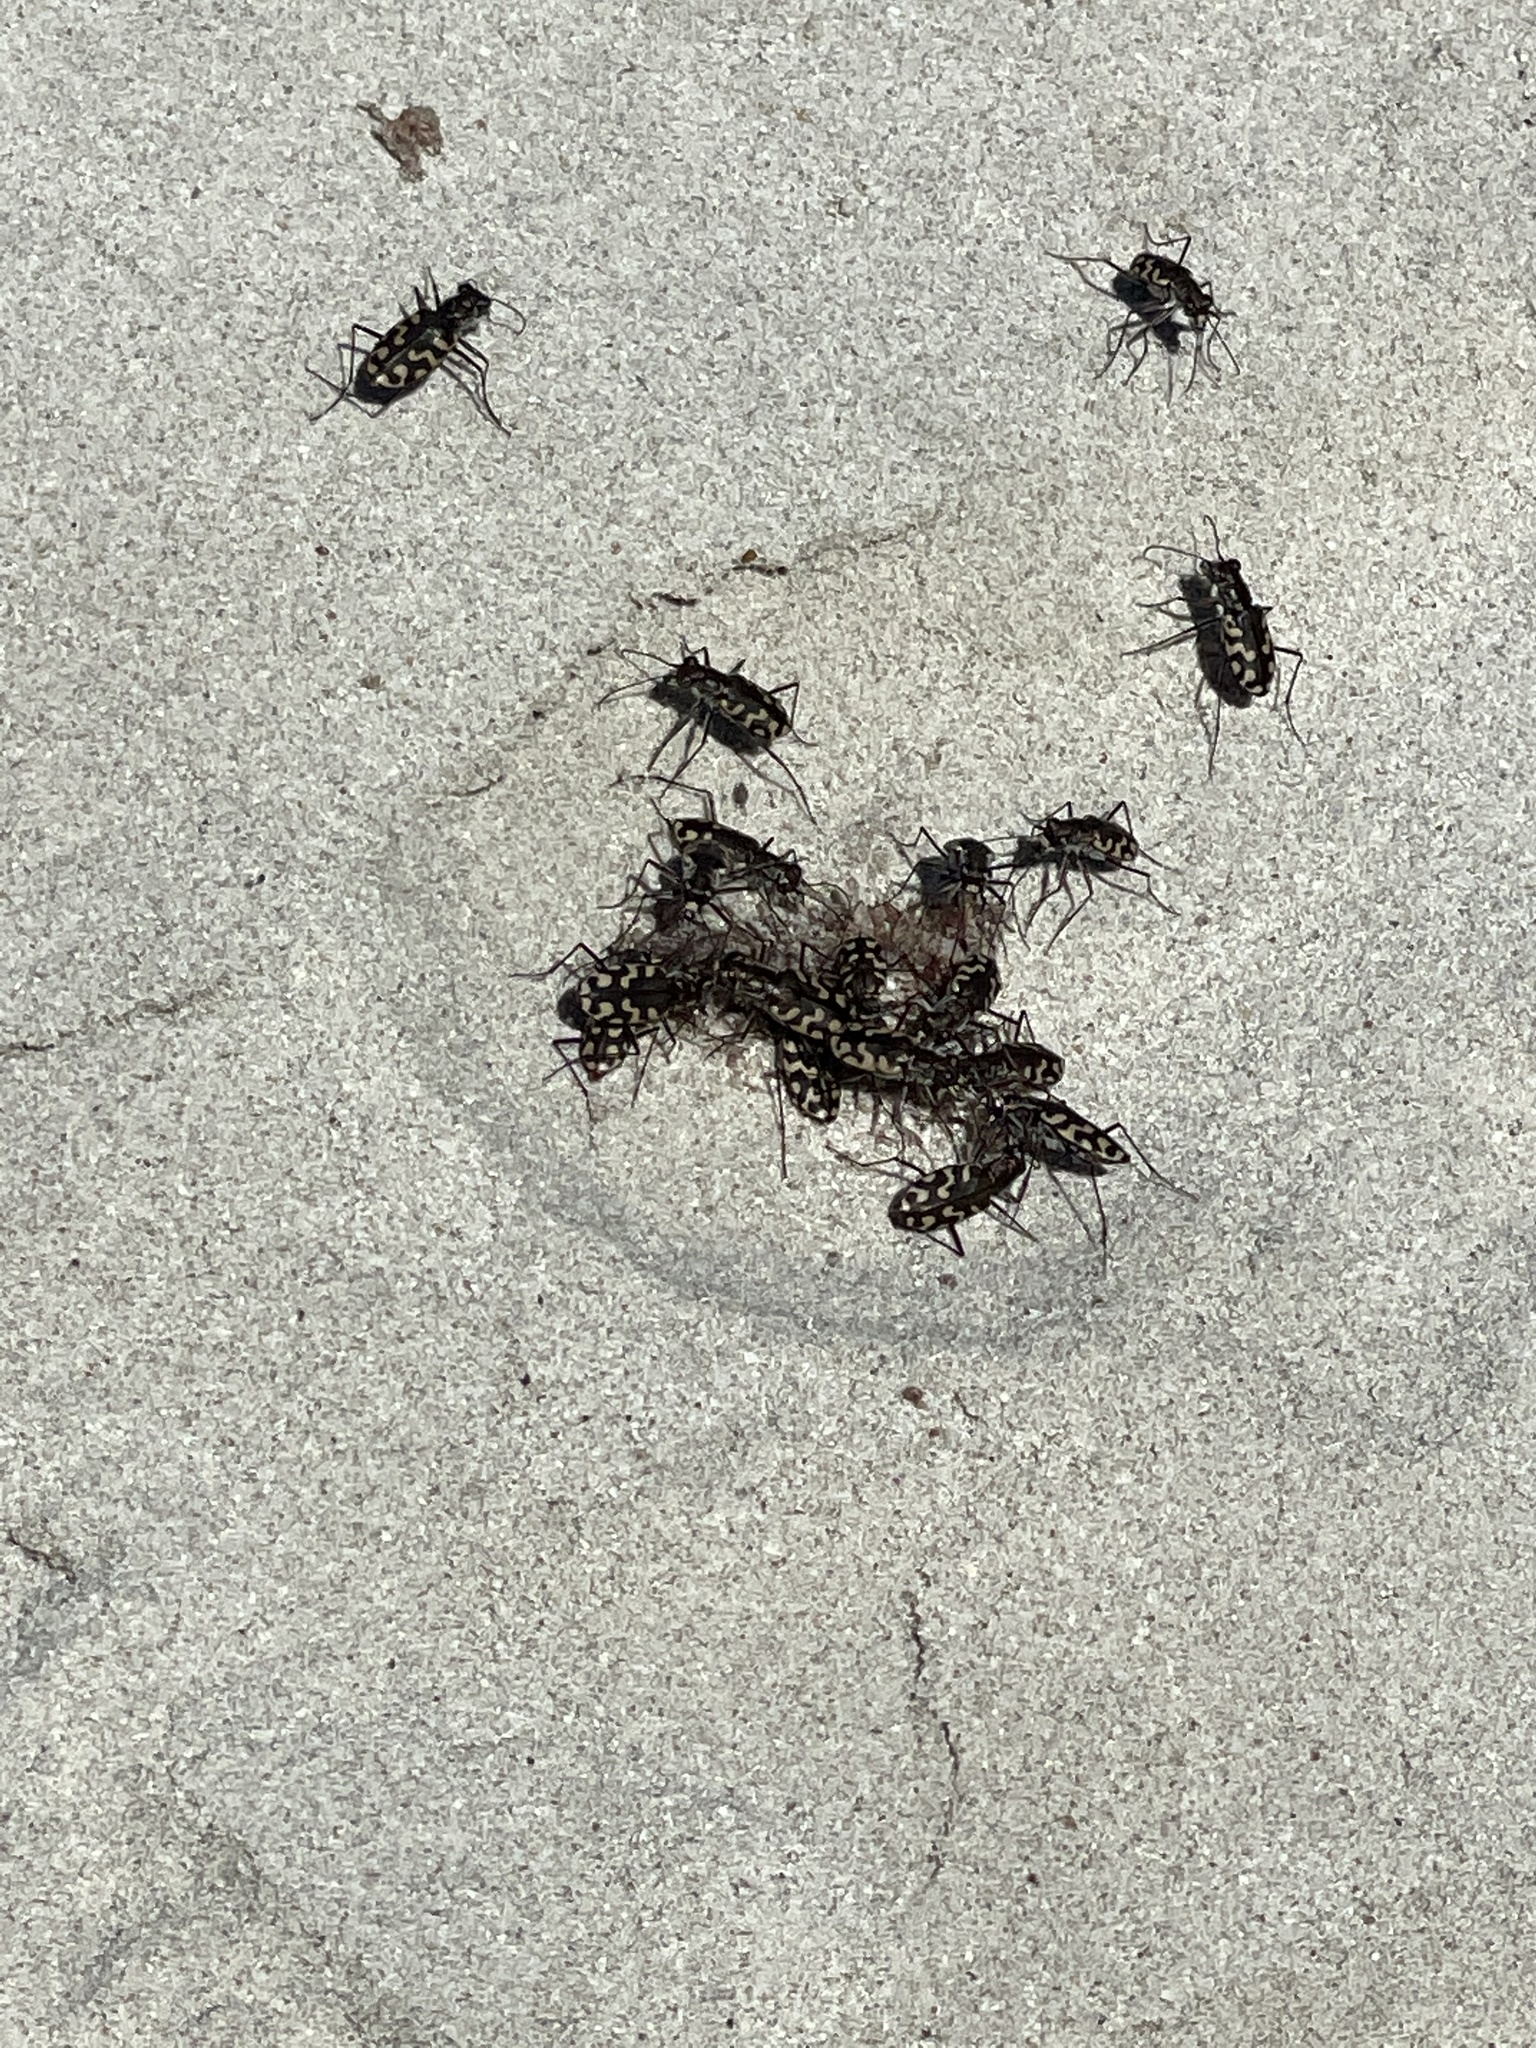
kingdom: Animalia
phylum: Arthropoda
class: Insecta
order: Coleoptera
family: Carabidae
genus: Cicindela
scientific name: Cicindela carthagena
